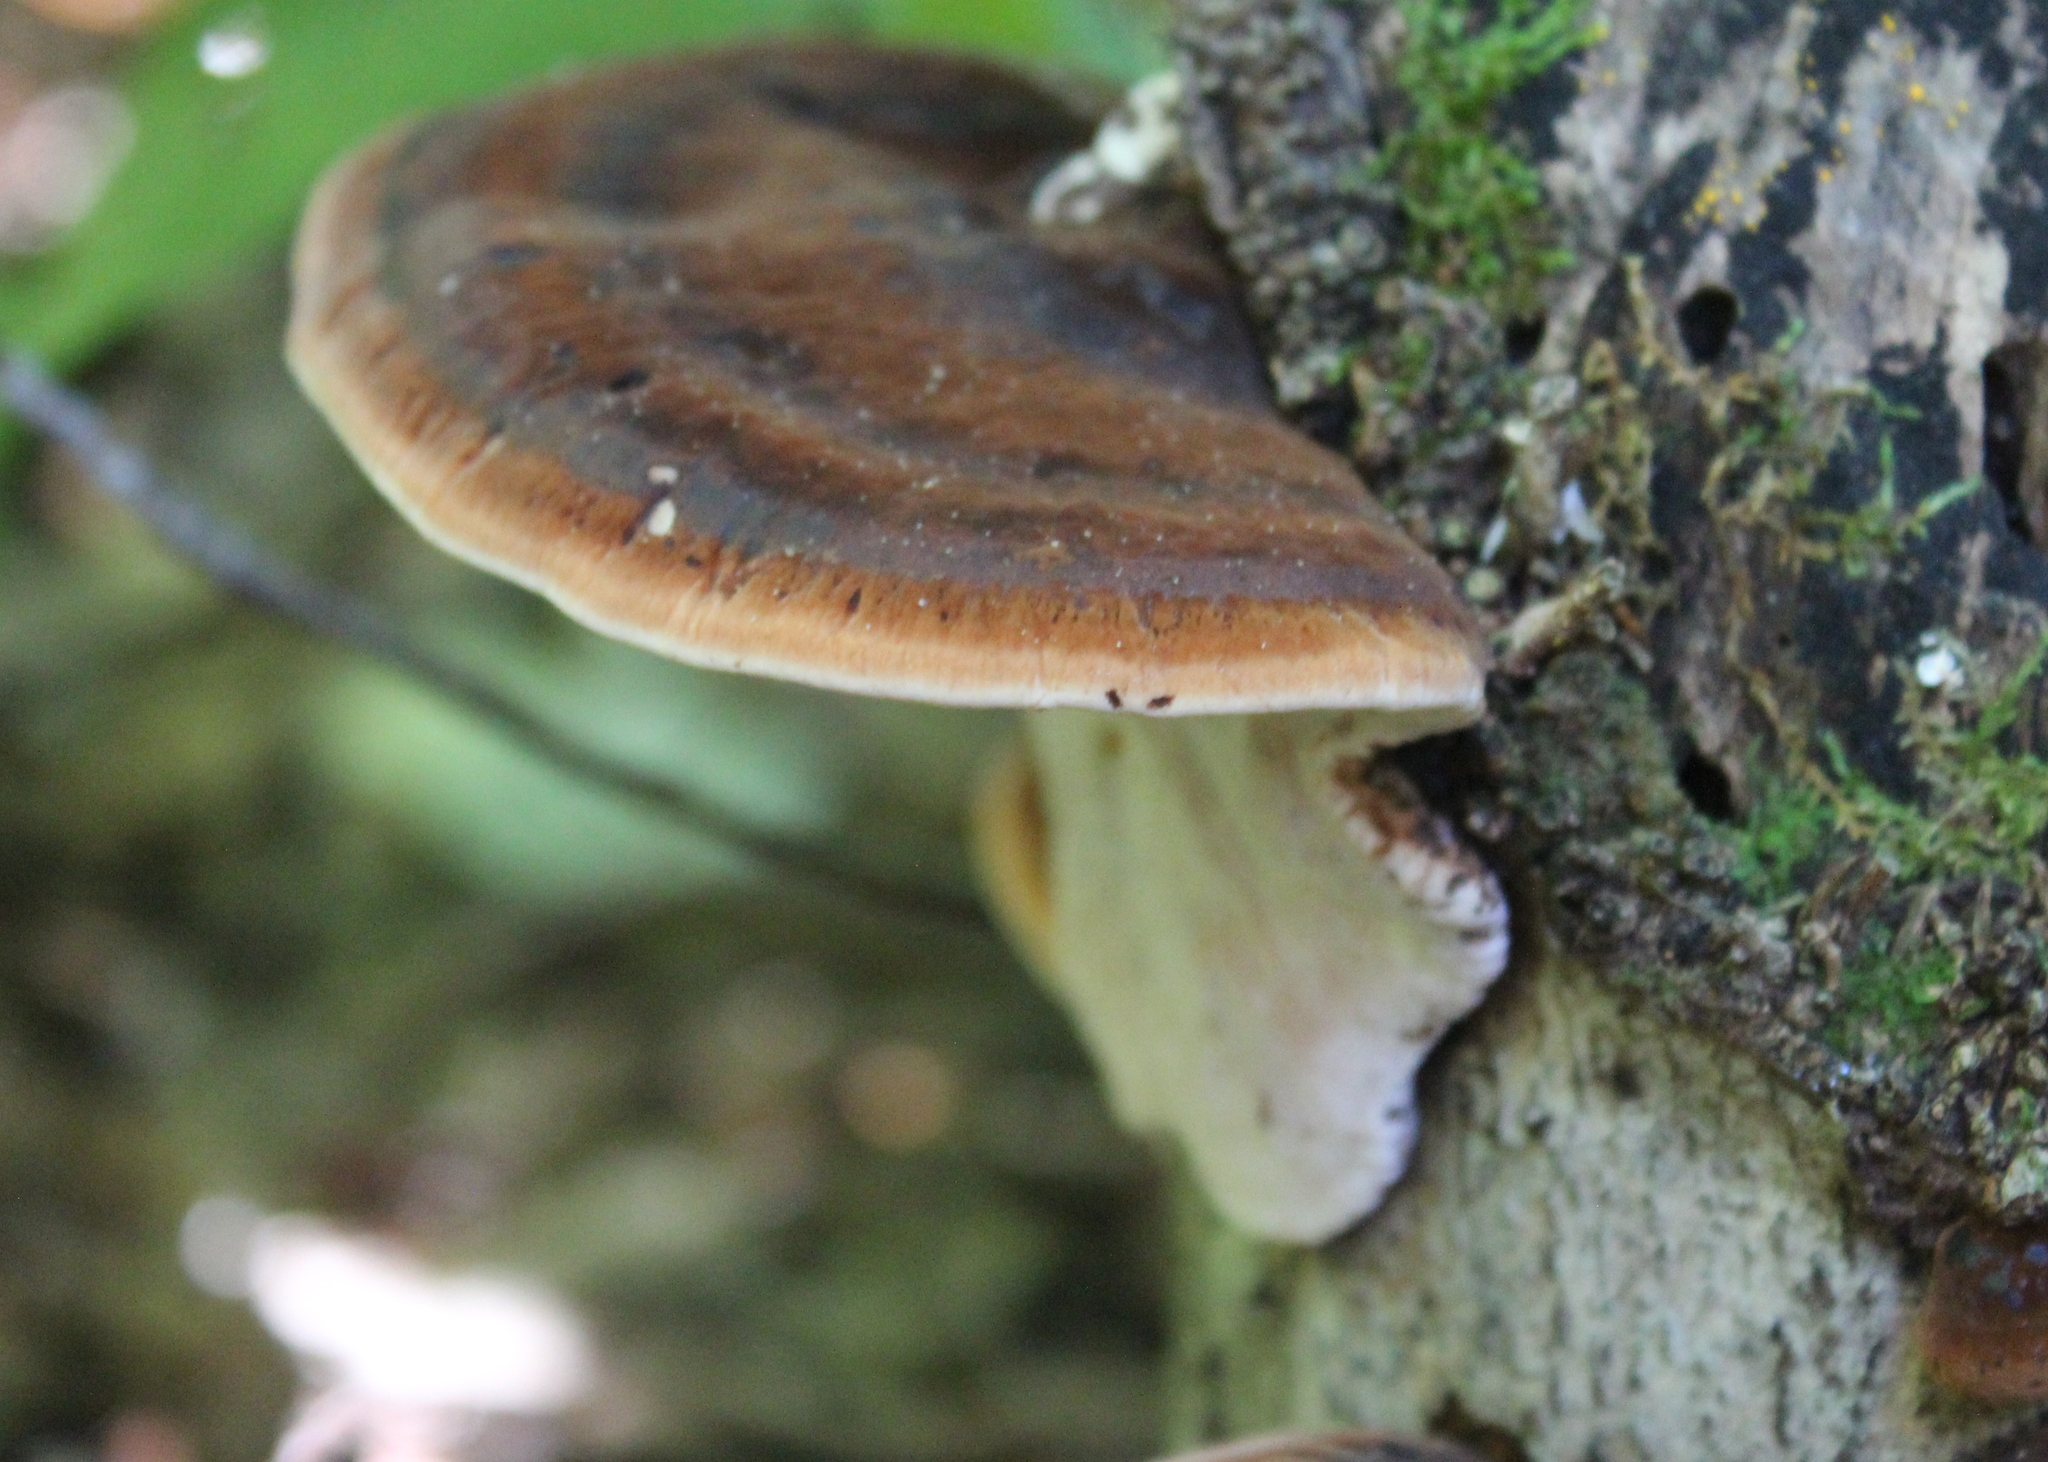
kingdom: Fungi
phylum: Basidiomycota
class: Agaricomycetes
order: Polyporales
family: Ischnodermataceae
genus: Ischnoderma
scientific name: Ischnoderma resinosum
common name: Resinous polypore
